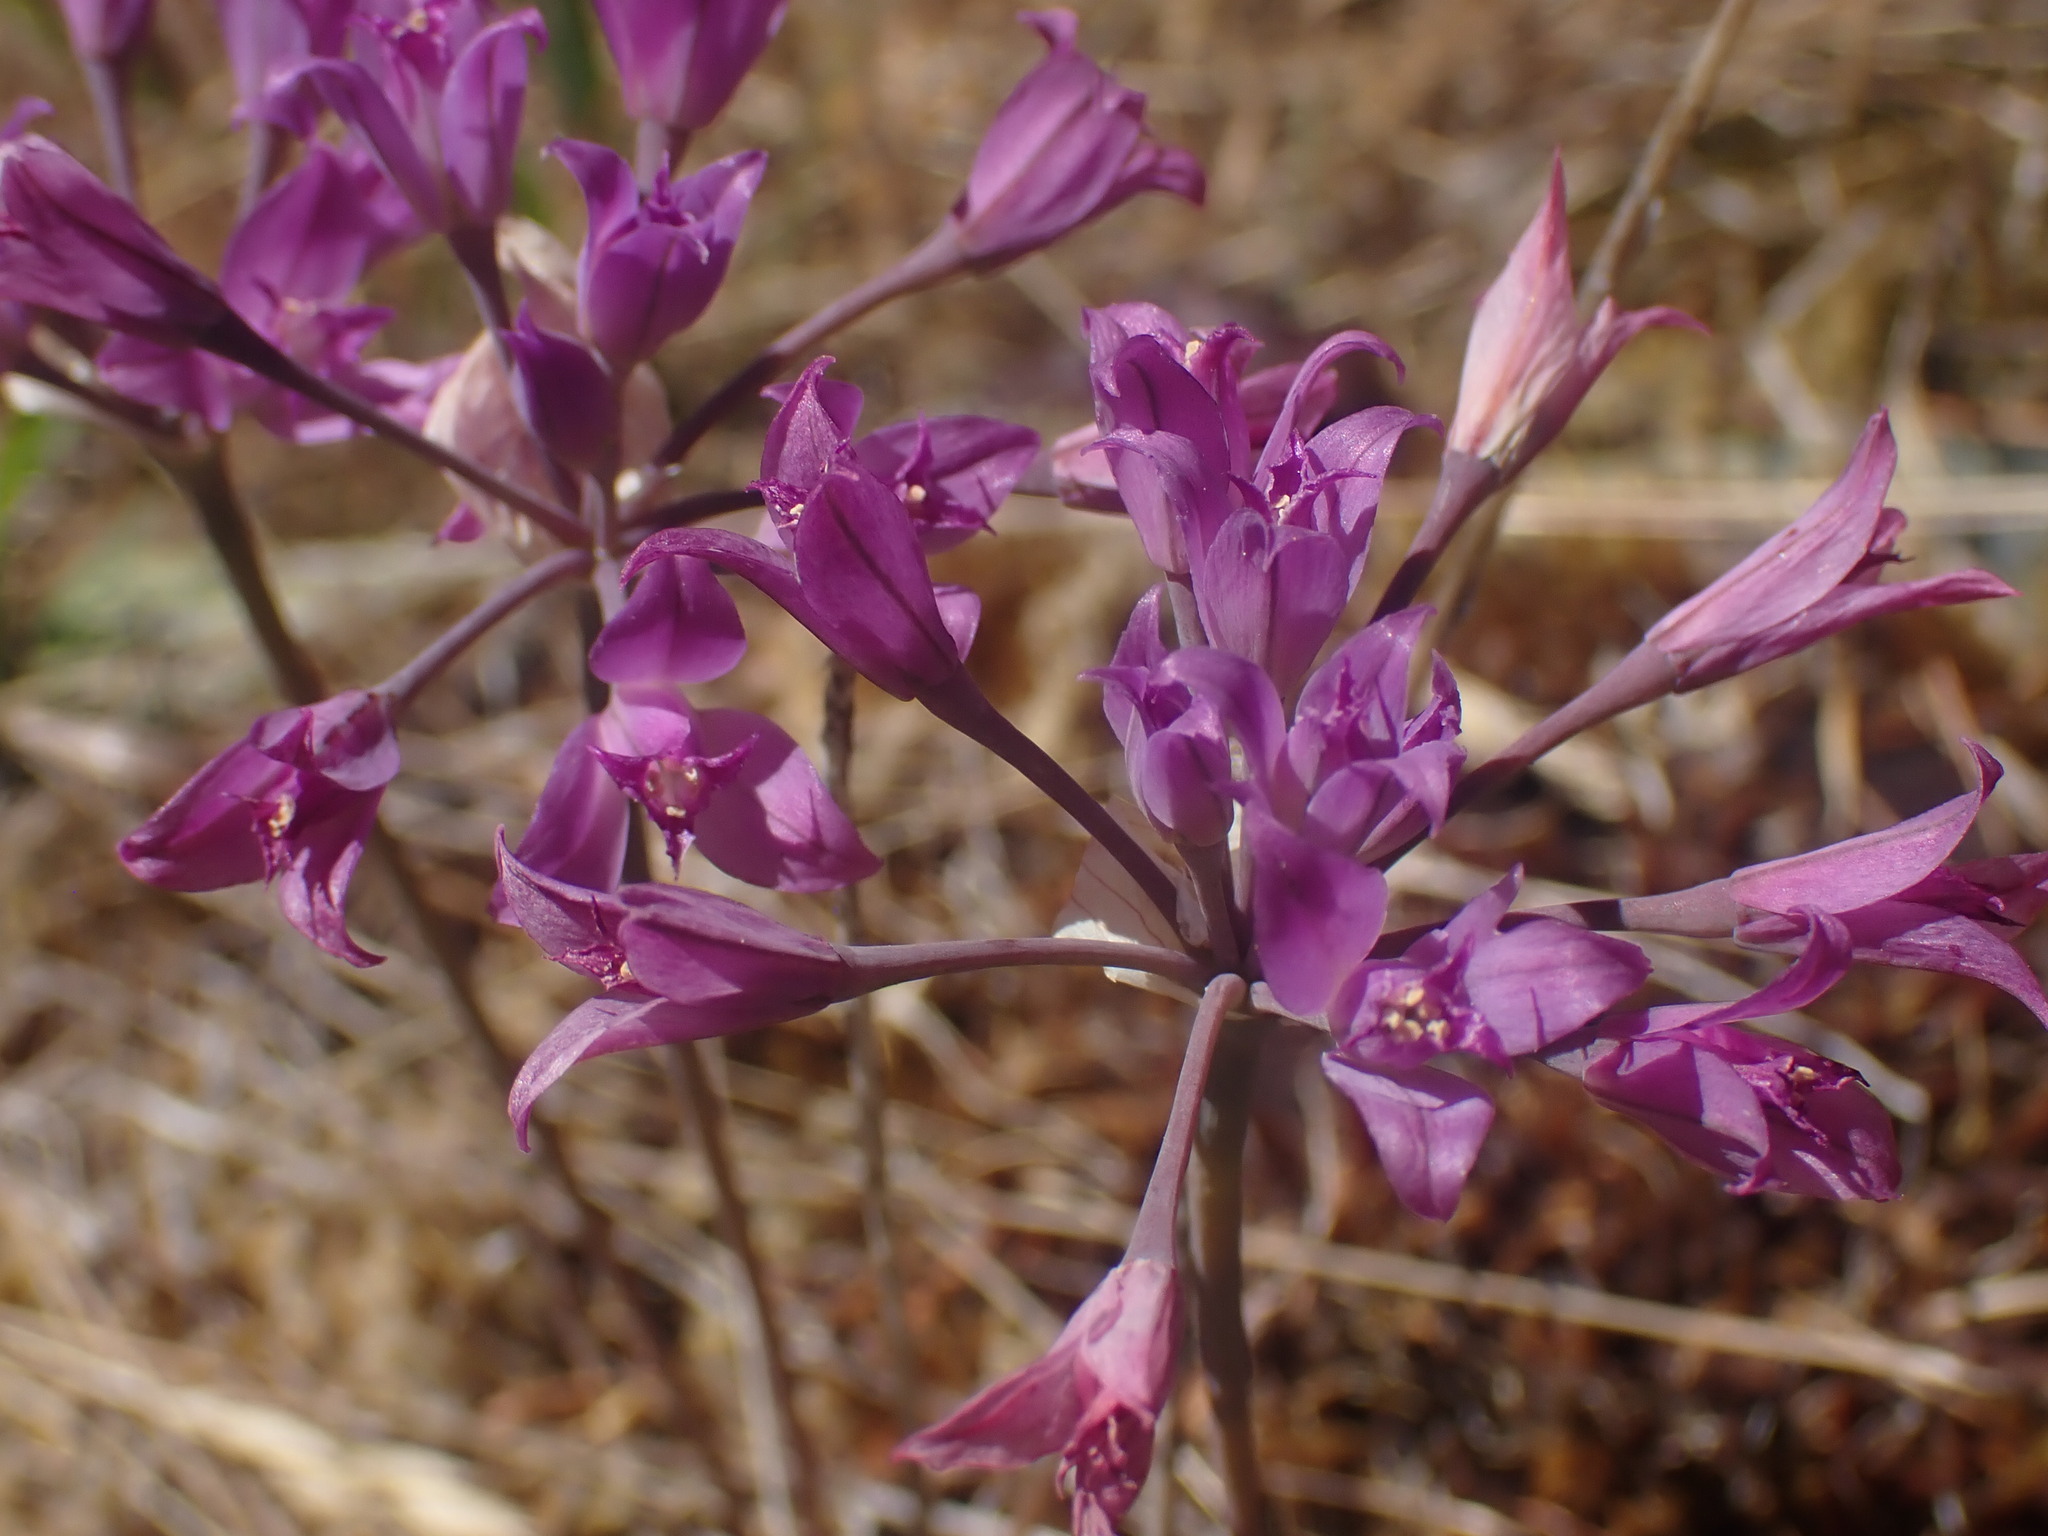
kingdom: Plantae
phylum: Tracheophyta
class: Liliopsida
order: Asparagales
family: Amaryllidaceae
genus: Allium
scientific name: Allium acuminatum
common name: Hooker's onion
